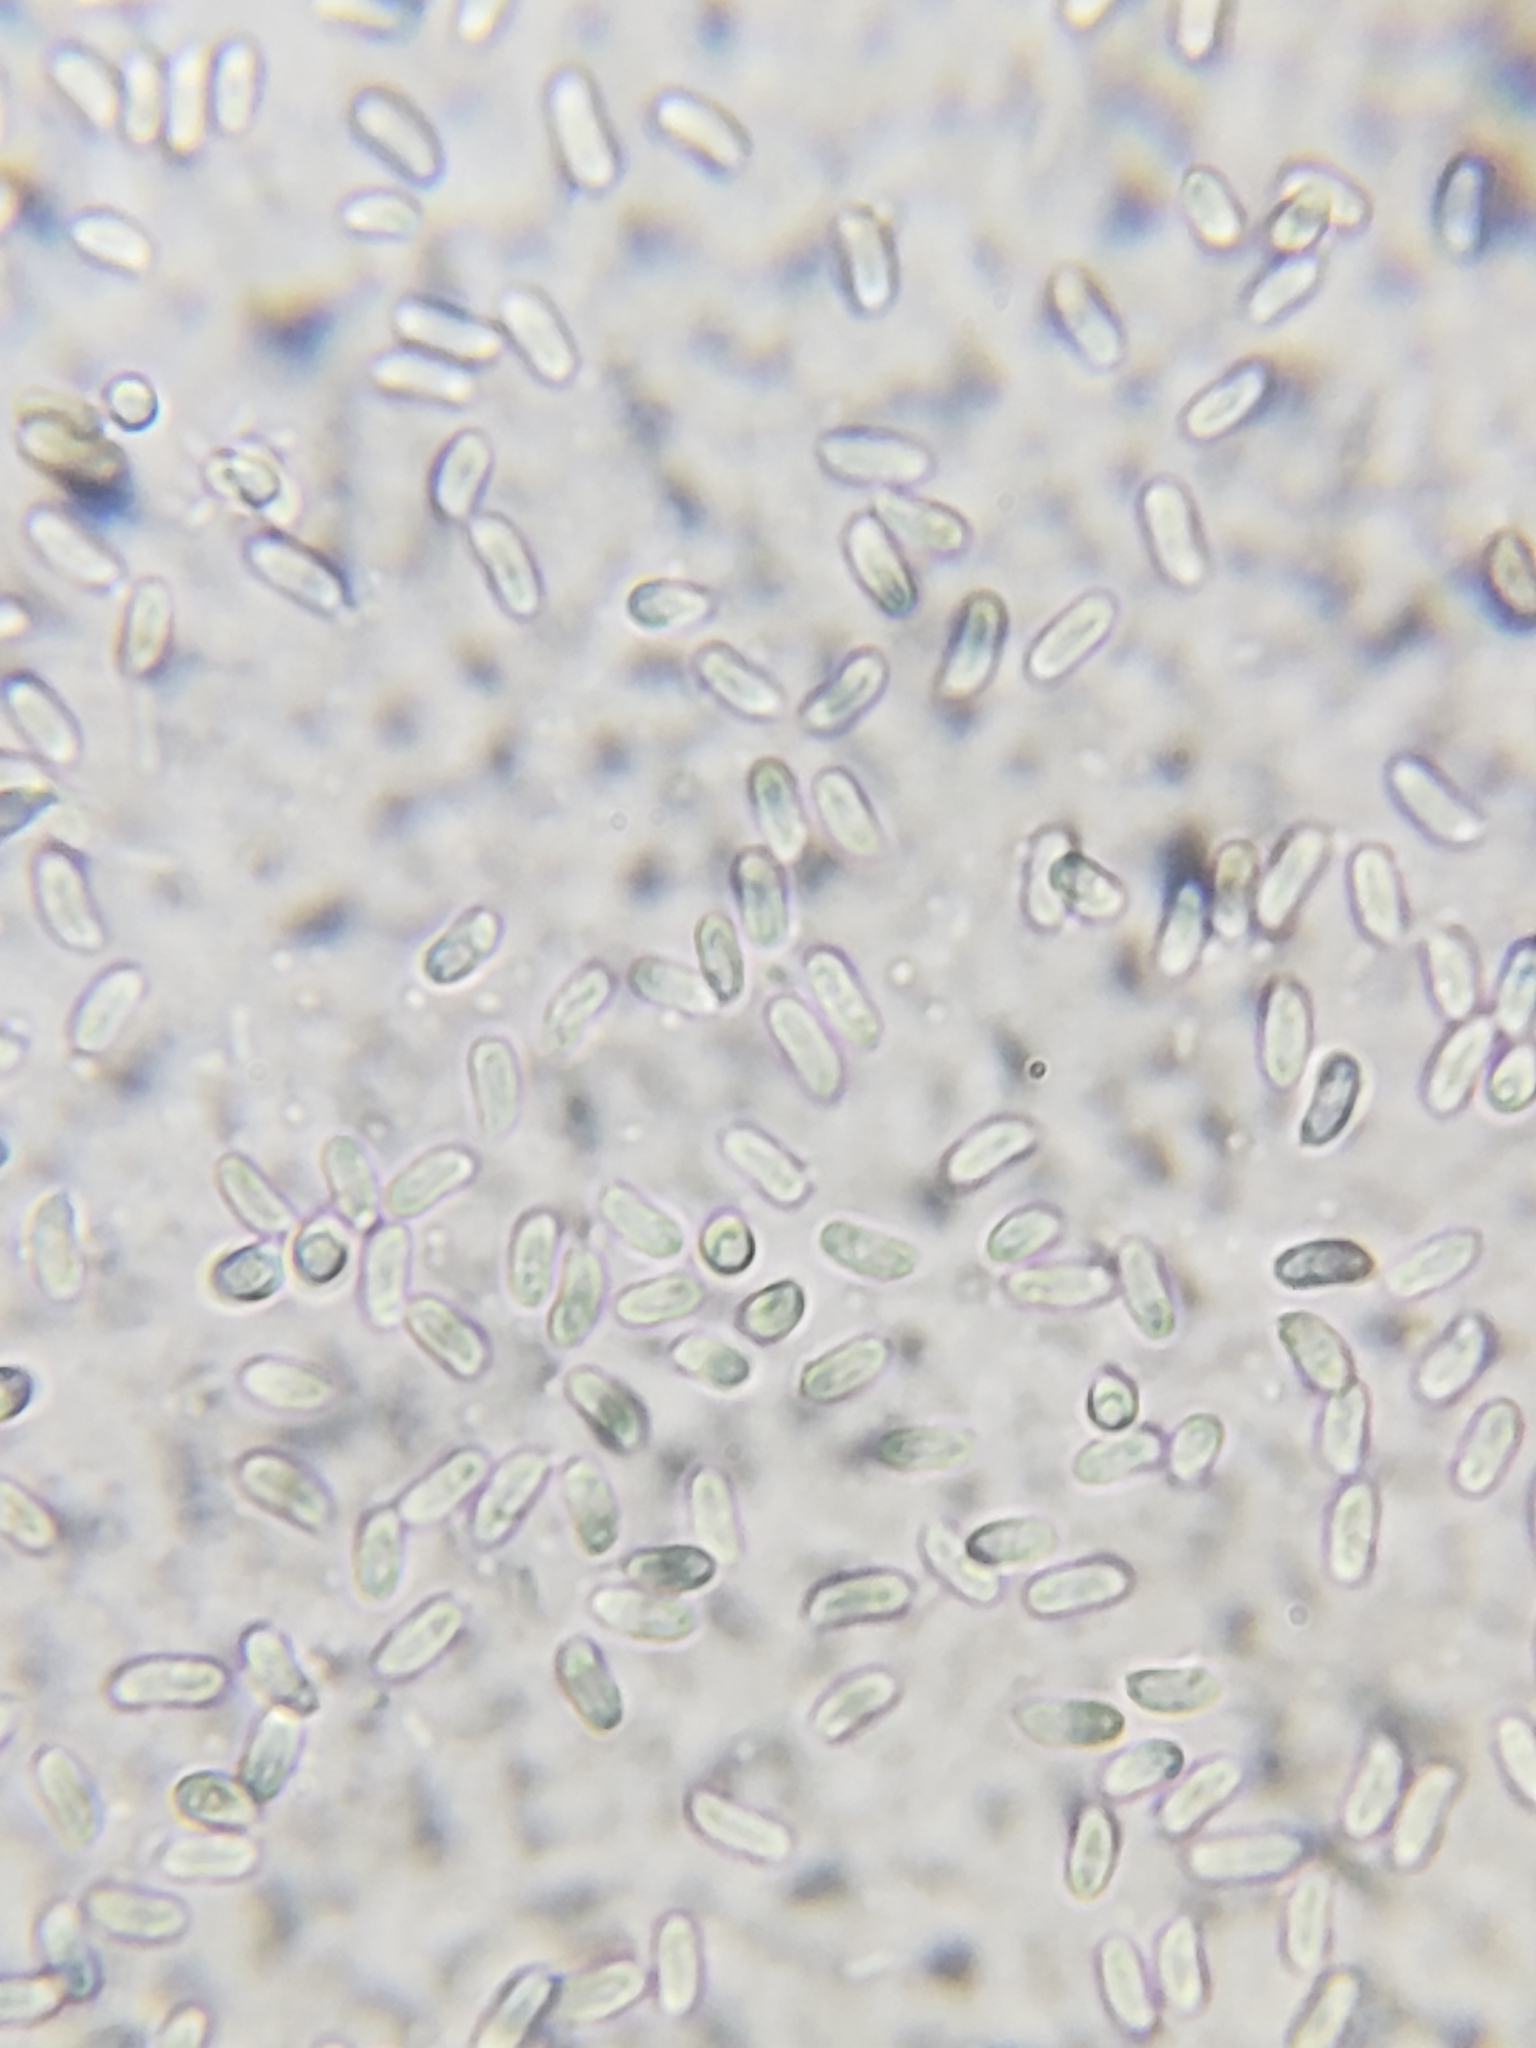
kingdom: Fungi
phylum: Basidiomycota
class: Agaricomycetes
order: Polyporales
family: Irpicaceae
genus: Byssomerulius
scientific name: Byssomerulius incarnatus
